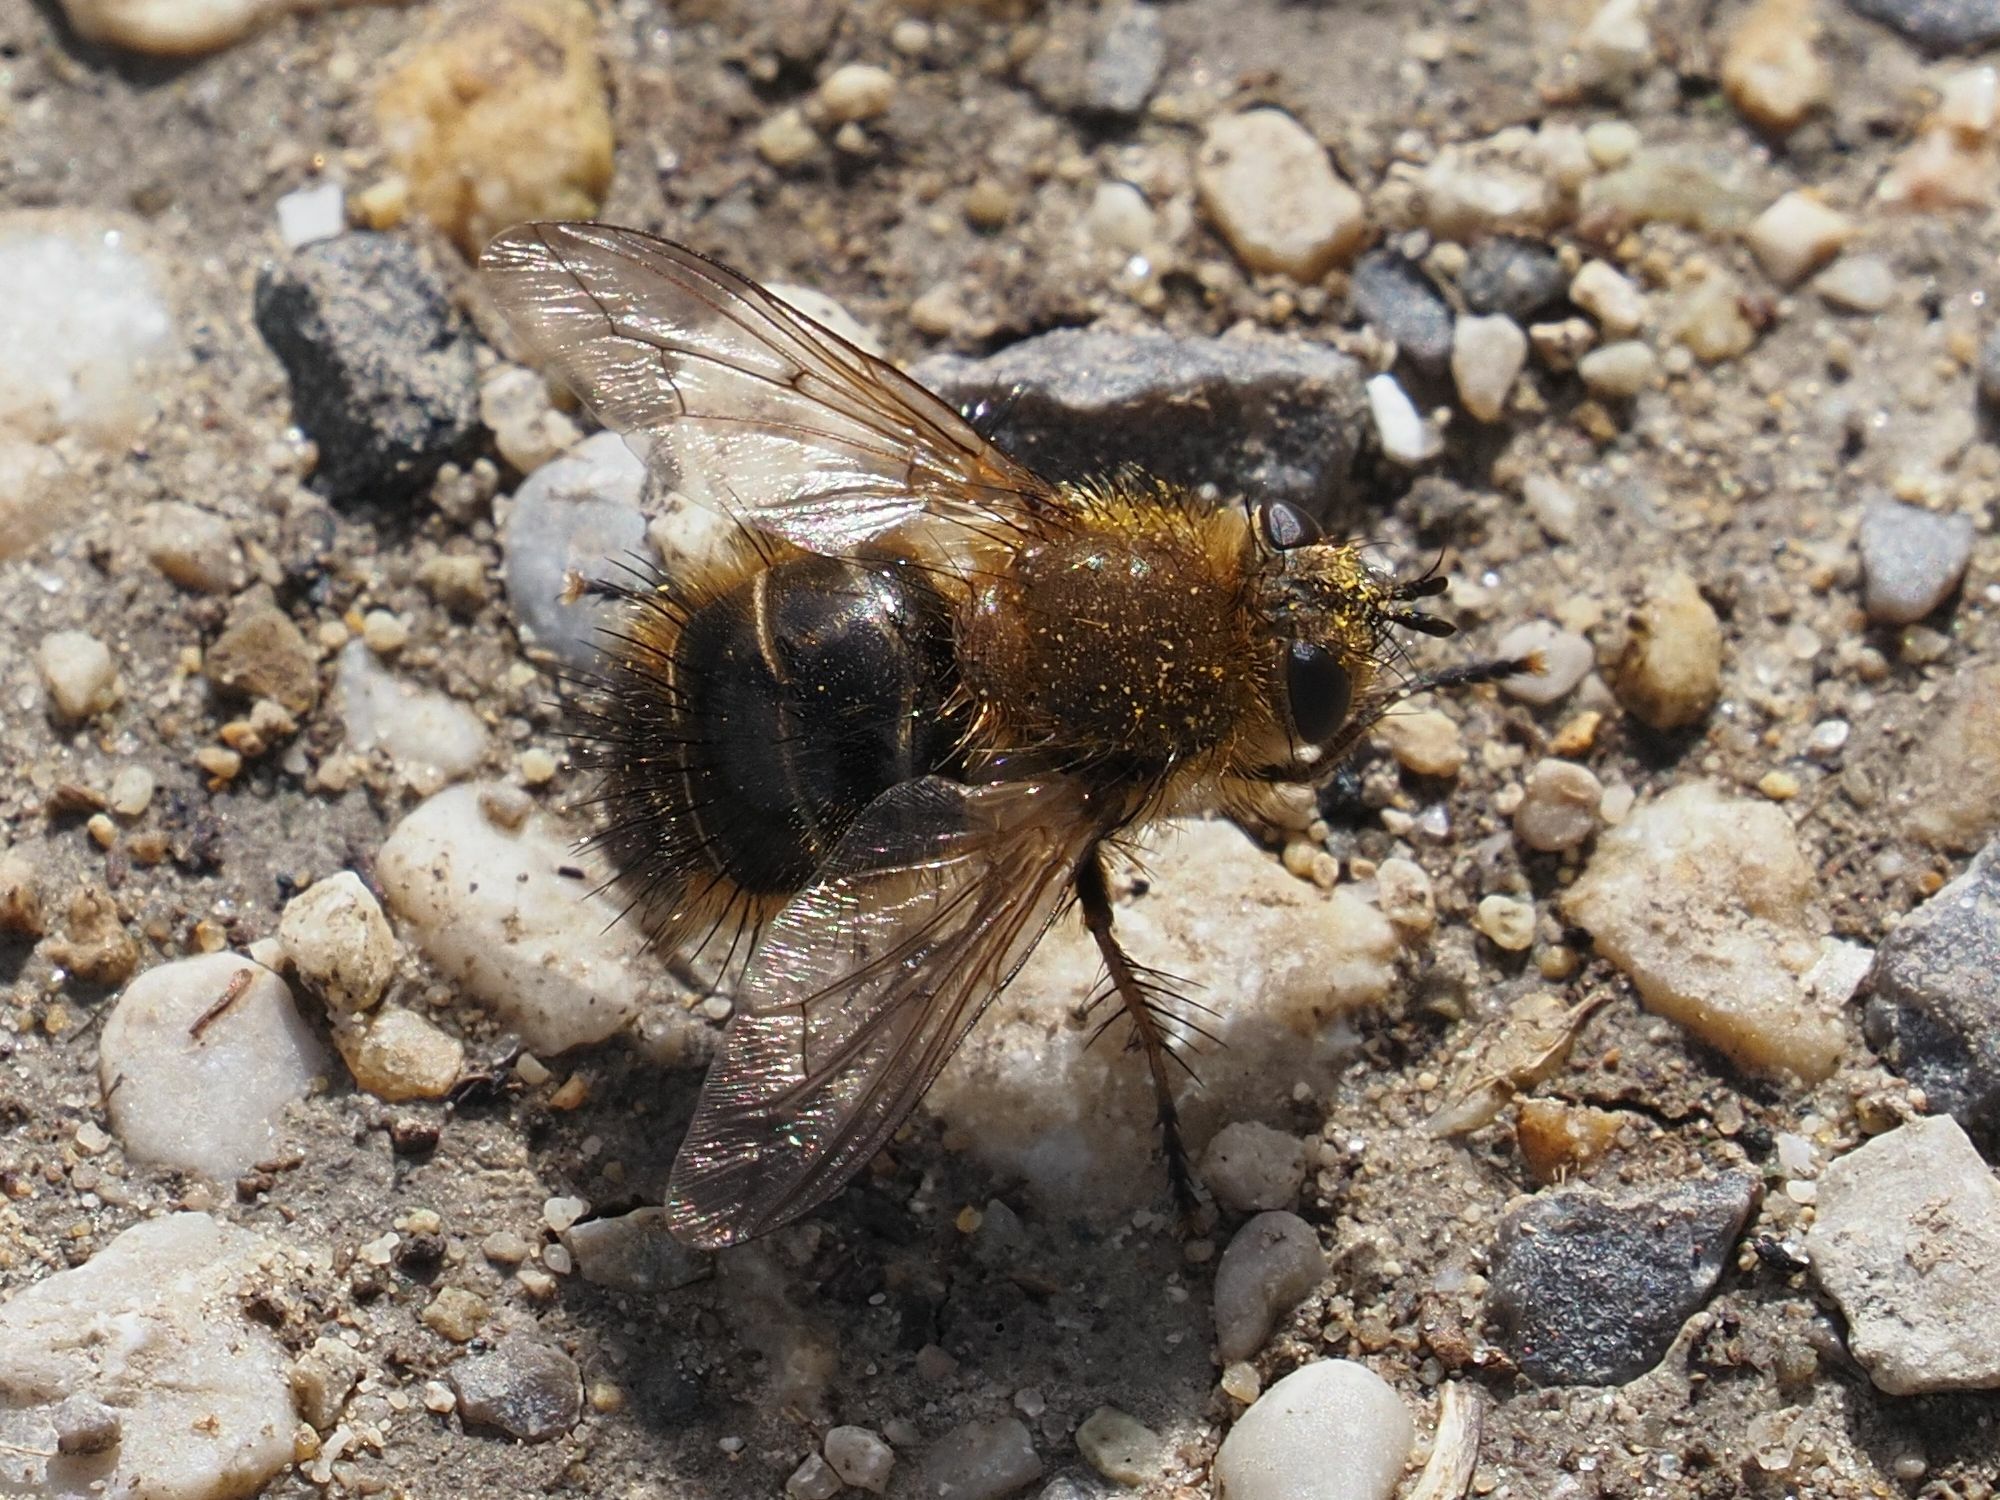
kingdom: Animalia
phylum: Arthropoda
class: Insecta
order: Diptera
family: Tachinidae
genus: Tachina
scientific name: Tachina ursina
